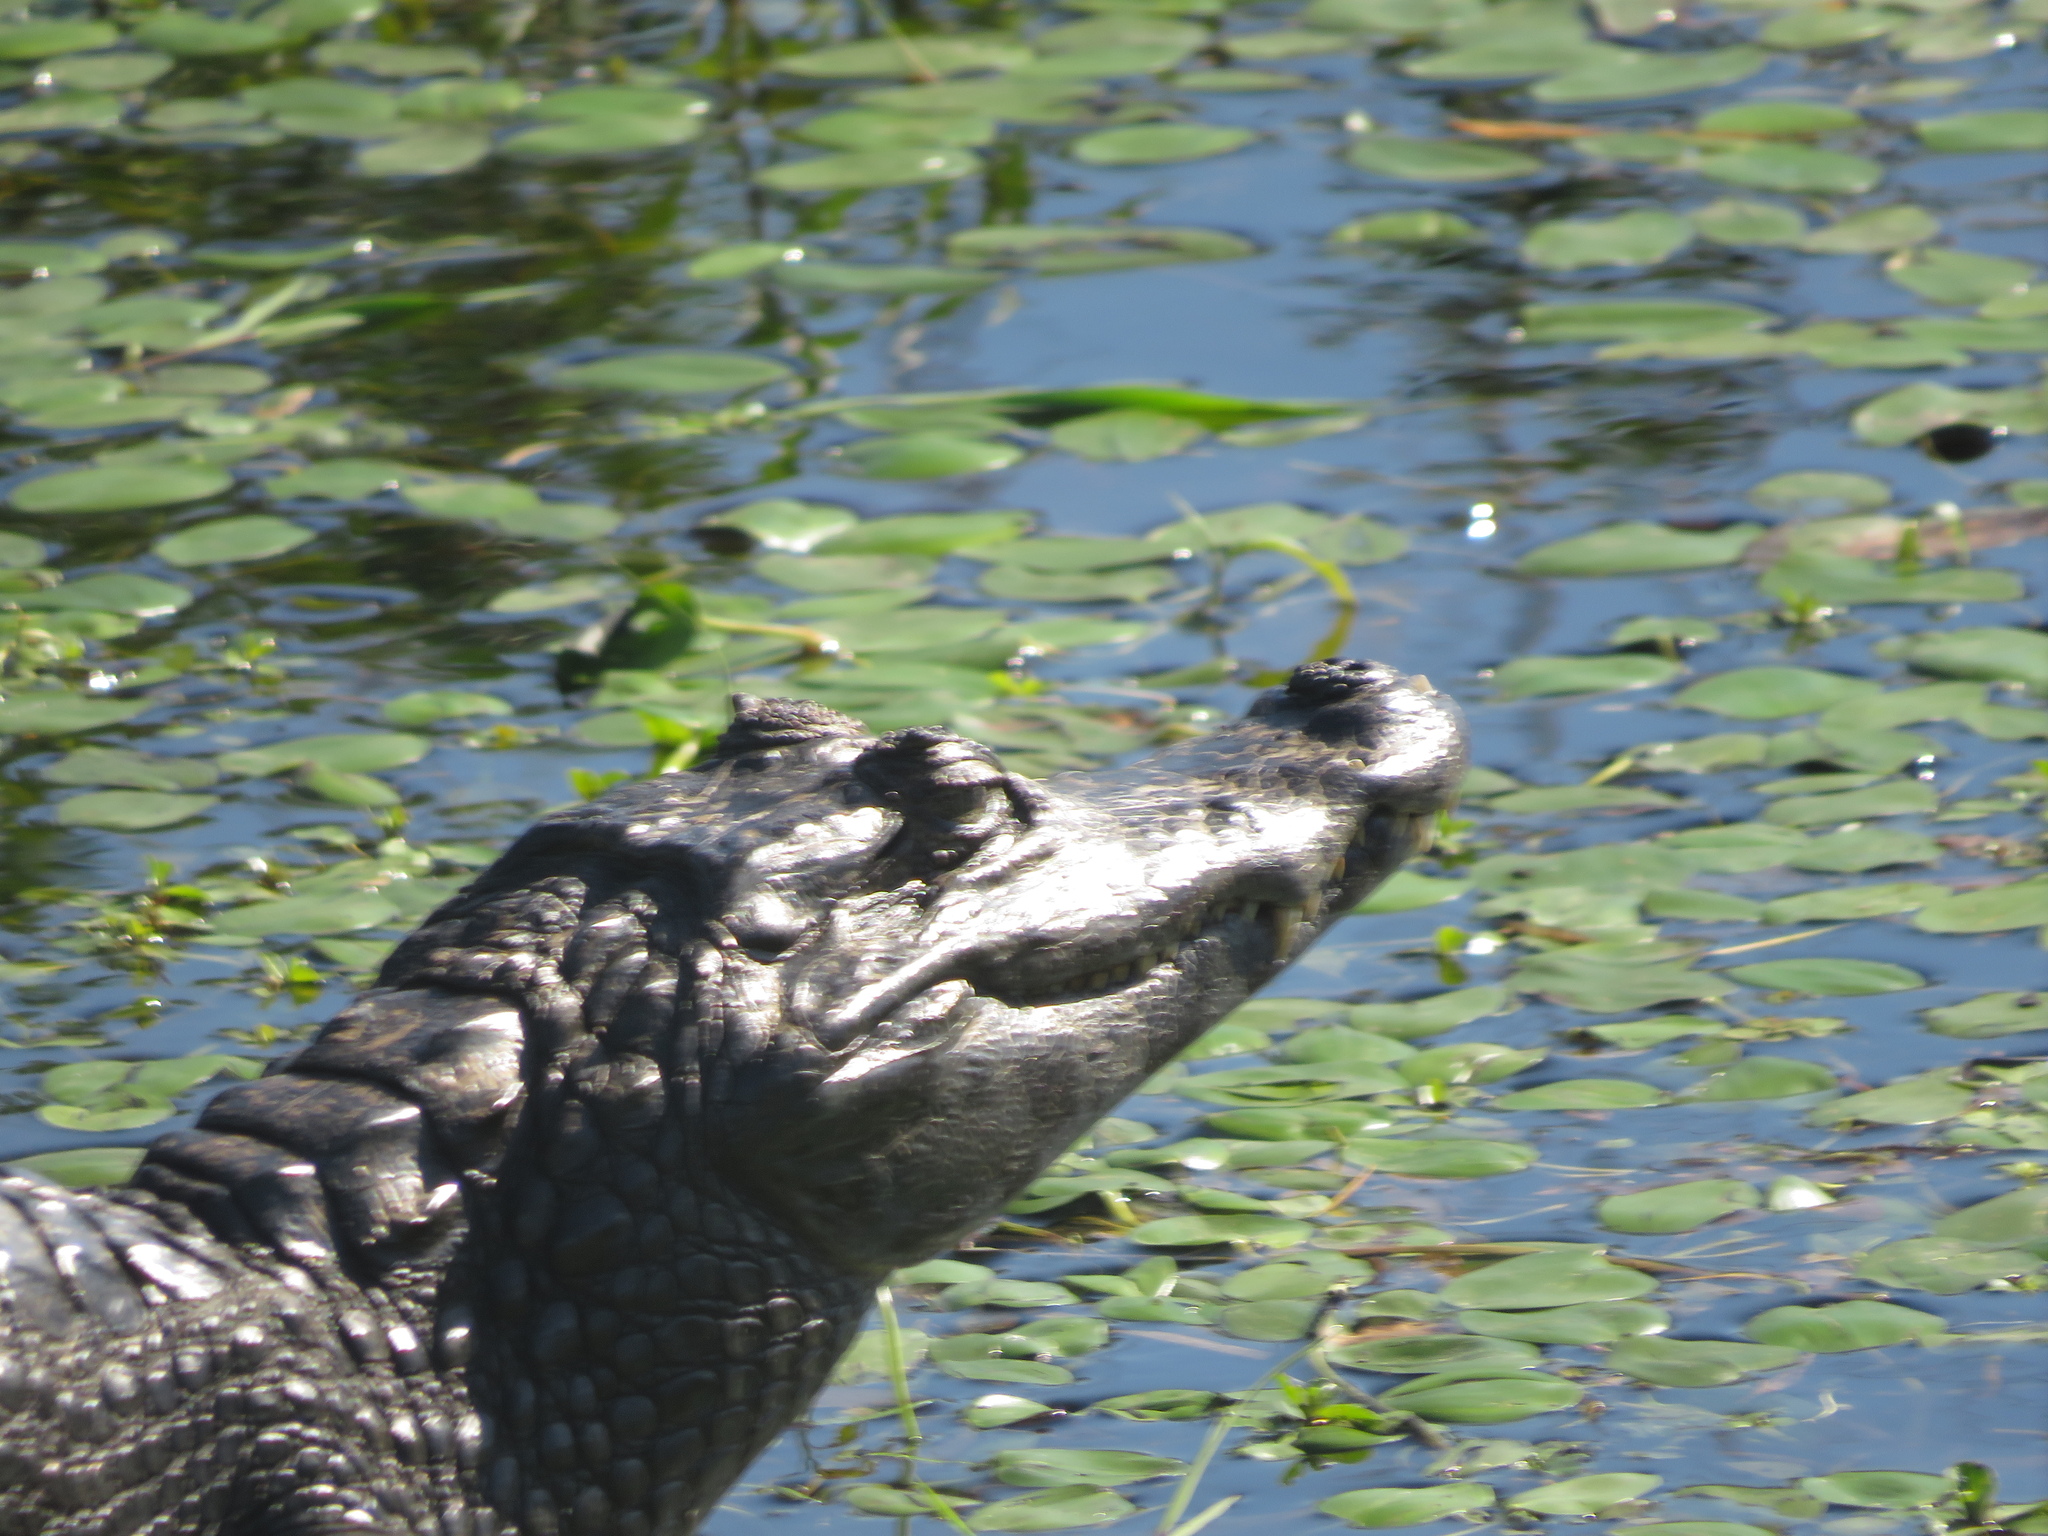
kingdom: Animalia
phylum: Chordata
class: Crocodylia
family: Alligatoridae
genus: Caiman
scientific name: Caiman yacare
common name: Yacare caiman
